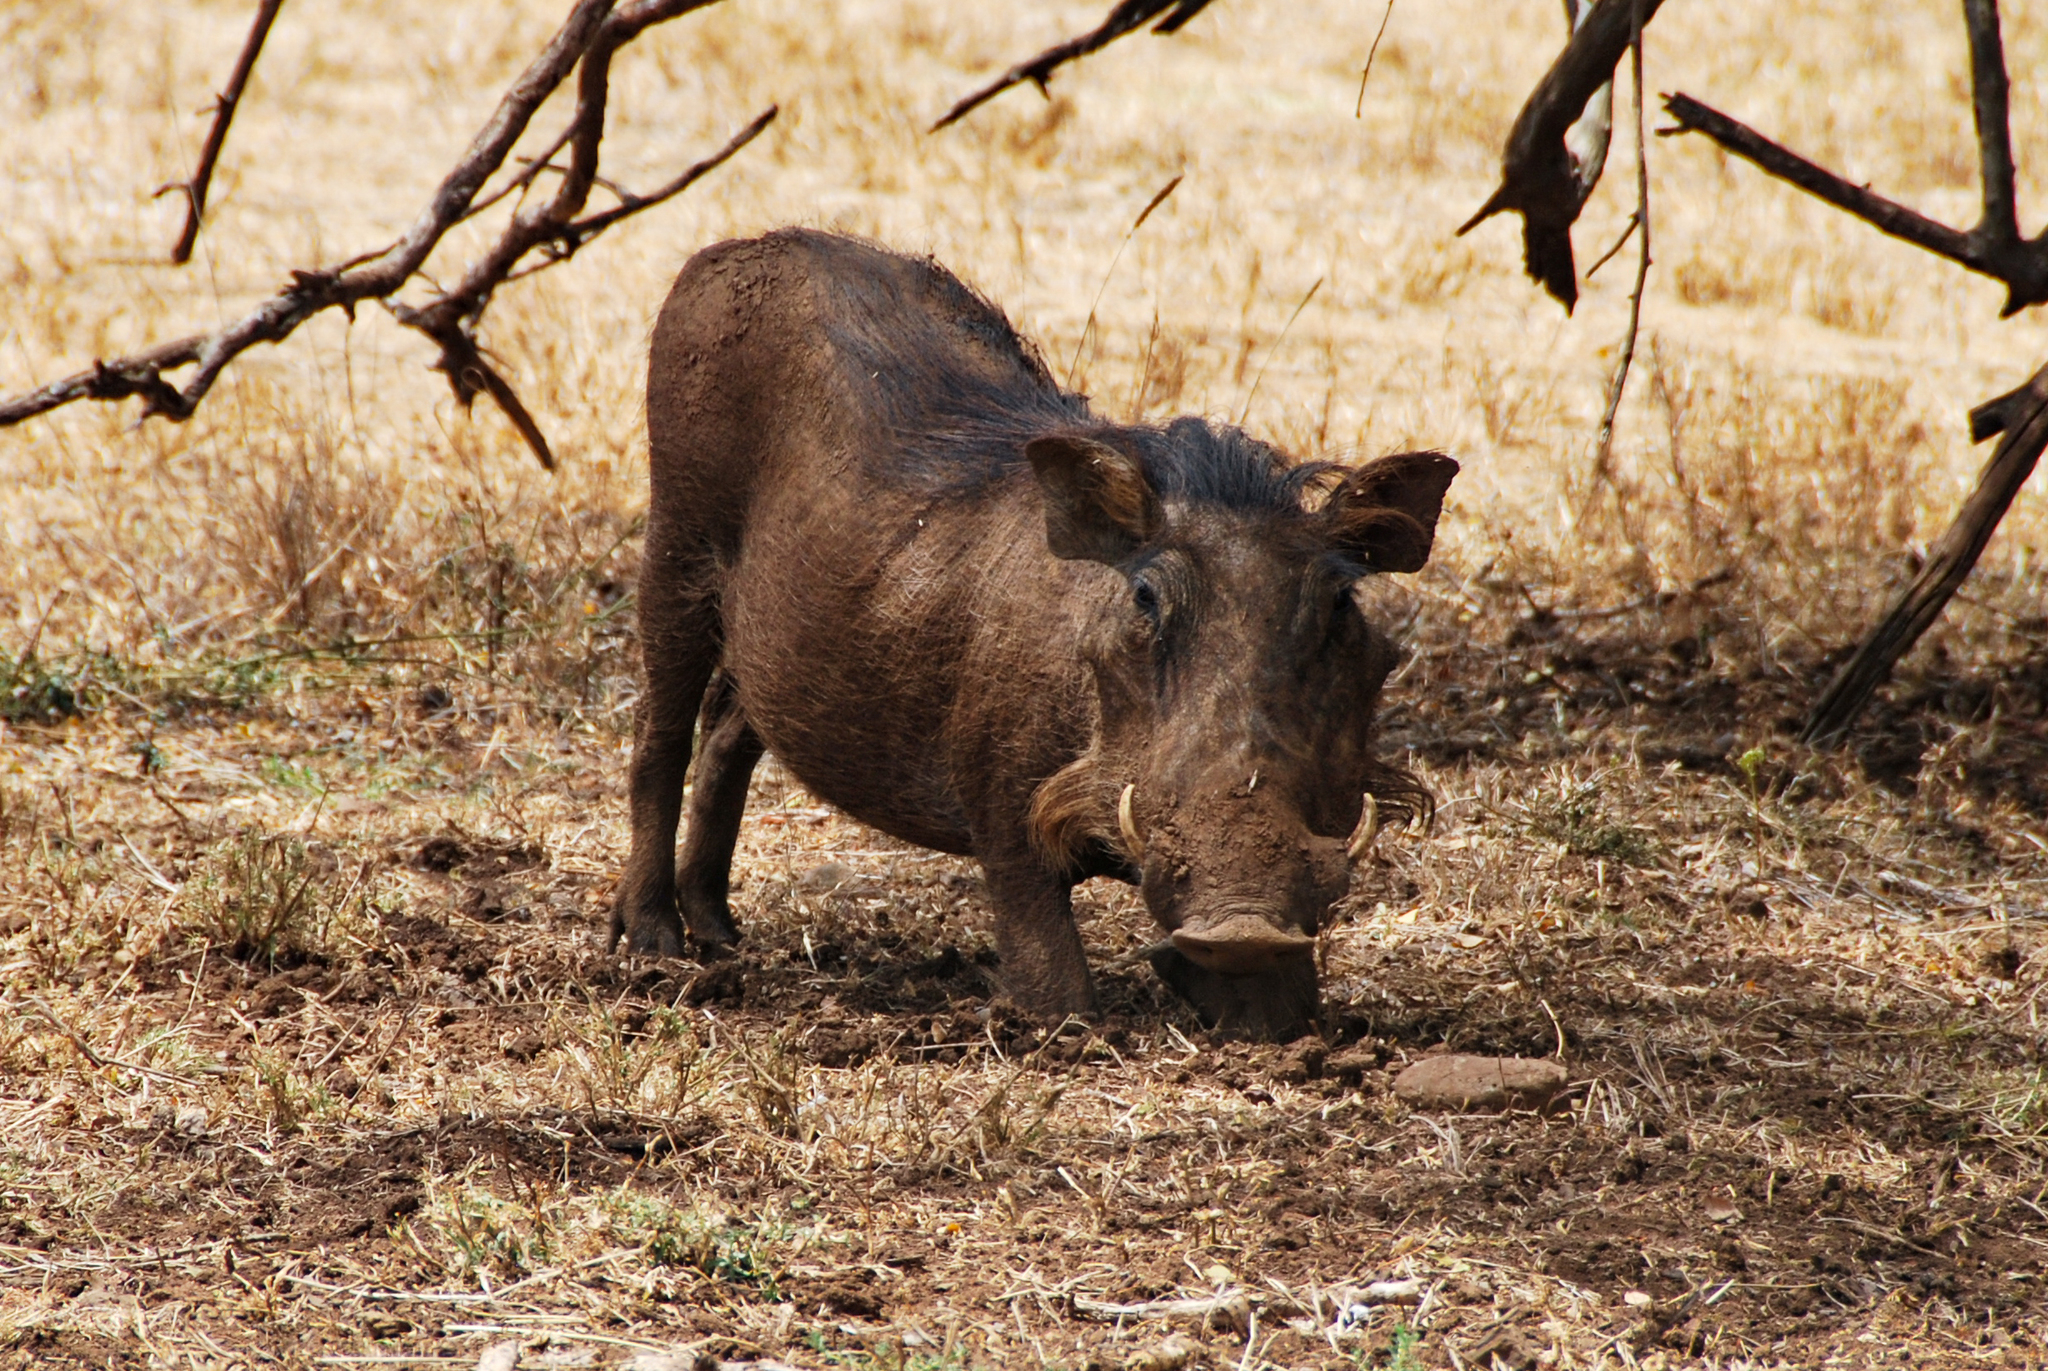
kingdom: Animalia
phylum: Chordata
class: Mammalia
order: Artiodactyla
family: Suidae
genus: Phacochoerus
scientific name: Phacochoerus africanus
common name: Common warthog
